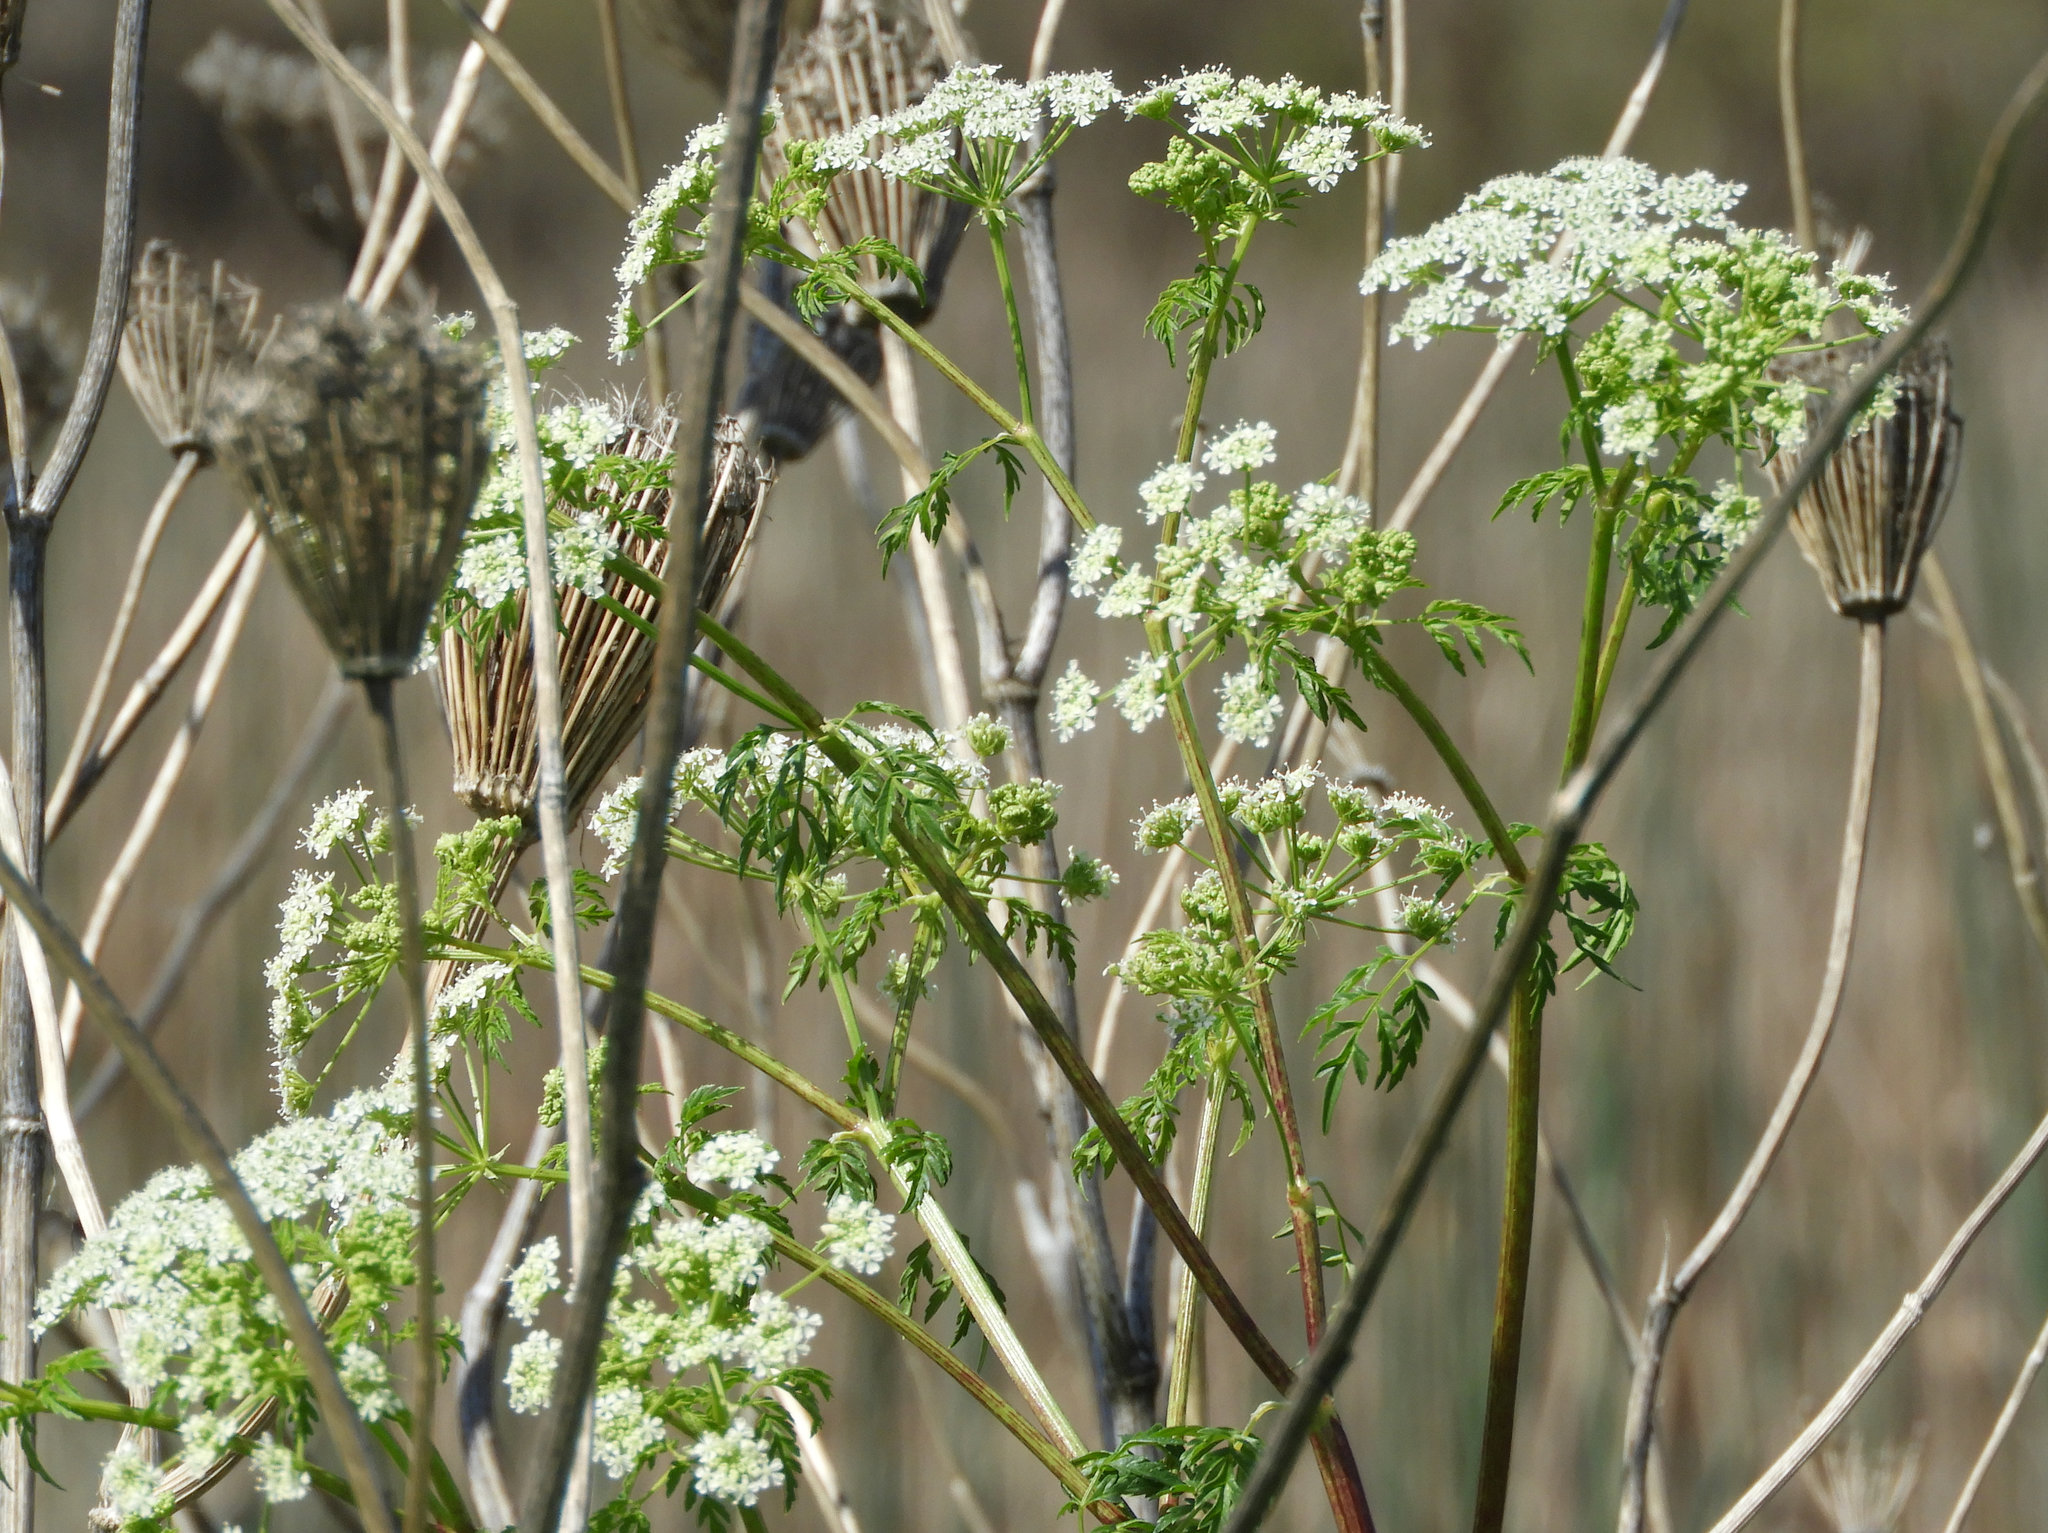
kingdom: Plantae
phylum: Tracheophyta
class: Magnoliopsida
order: Apiales
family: Apiaceae
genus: Conium
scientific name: Conium maculatum
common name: Hemlock
